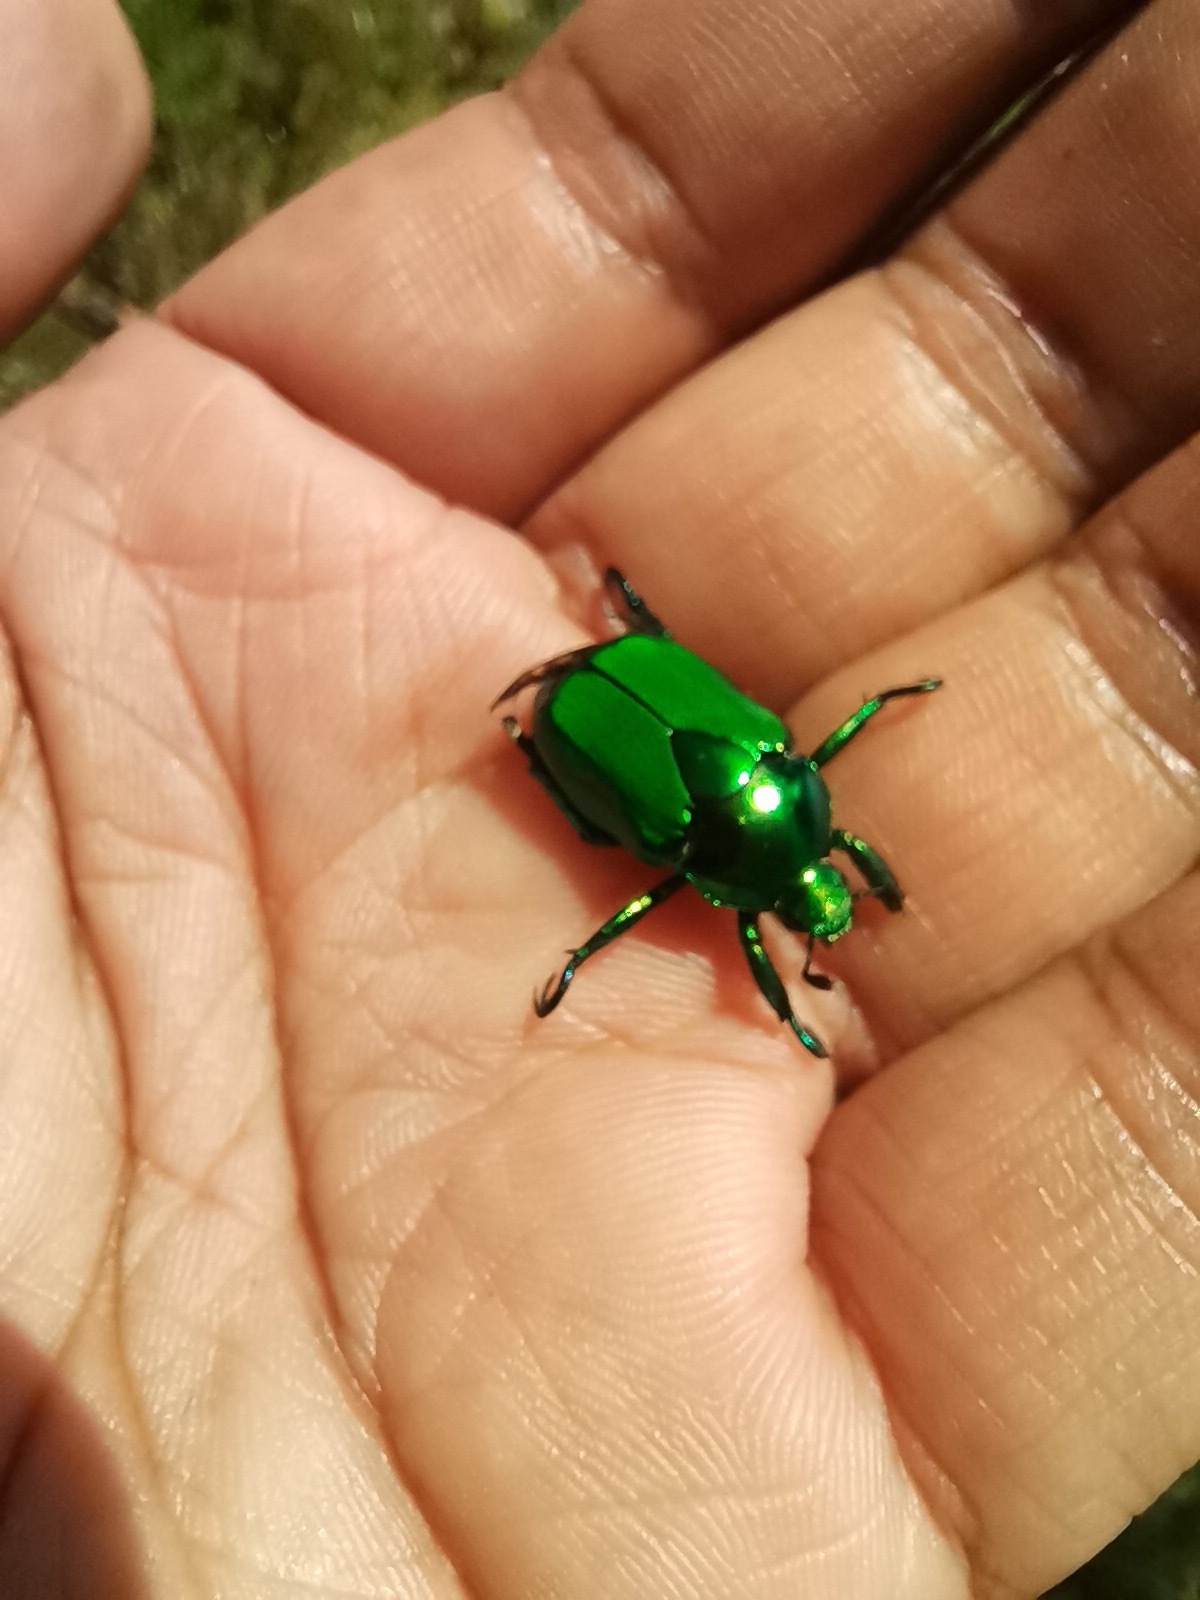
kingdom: Animalia
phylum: Arthropoda
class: Insecta
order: Coleoptera
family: Scarabaeidae
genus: Calomacraspis
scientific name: Calomacraspis splendens
